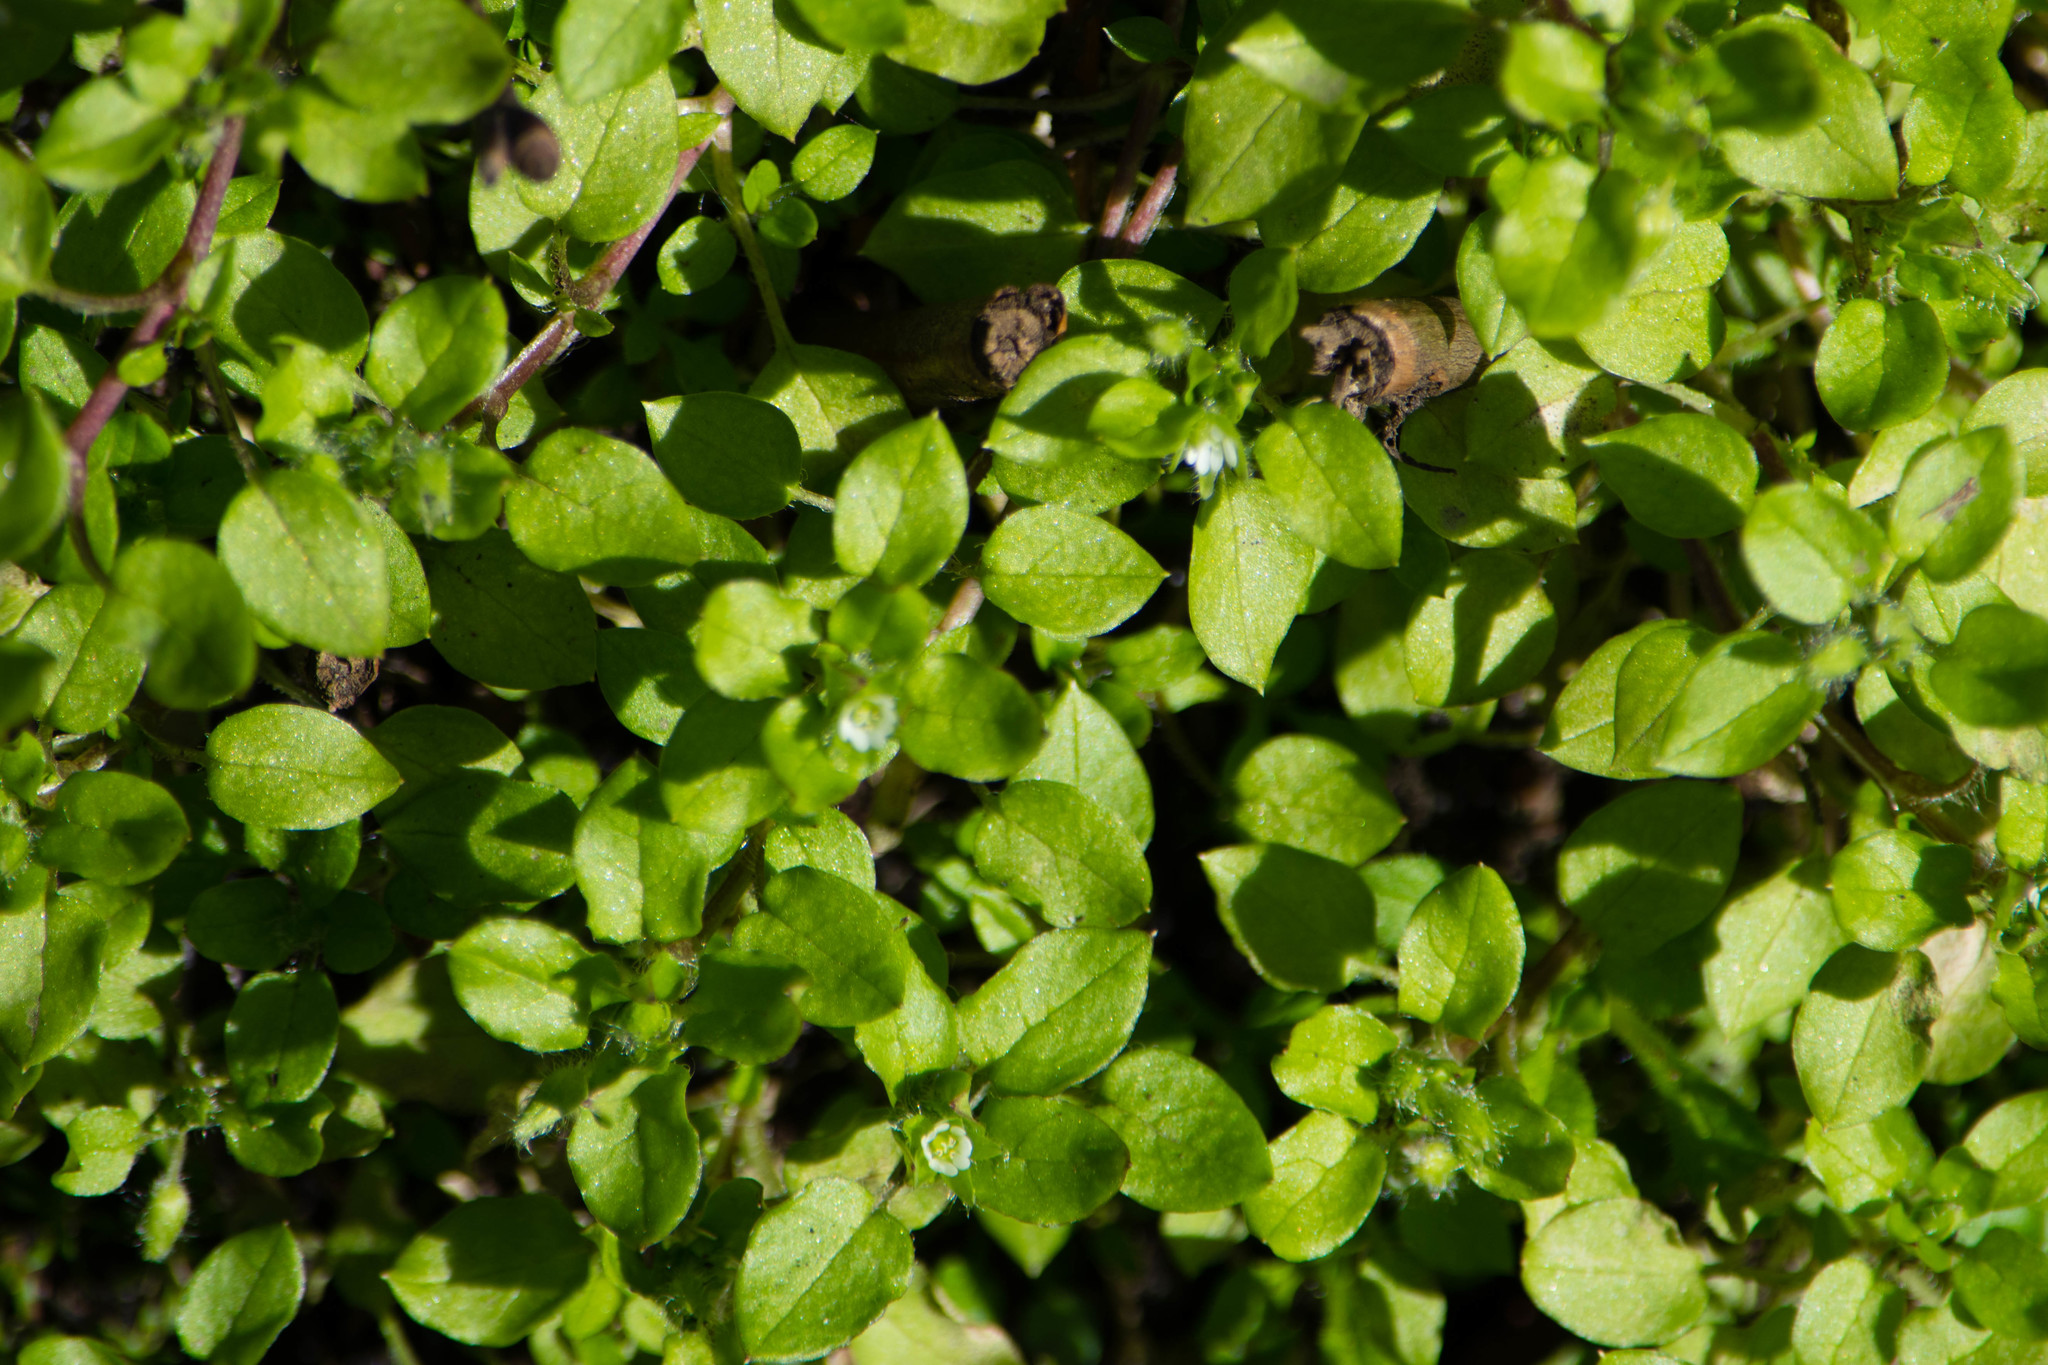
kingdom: Plantae
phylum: Tracheophyta
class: Magnoliopsida
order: Caryophyllales
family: Caryophyllaceae
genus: Stellaria
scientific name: Stellaria media
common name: Common chickweed
